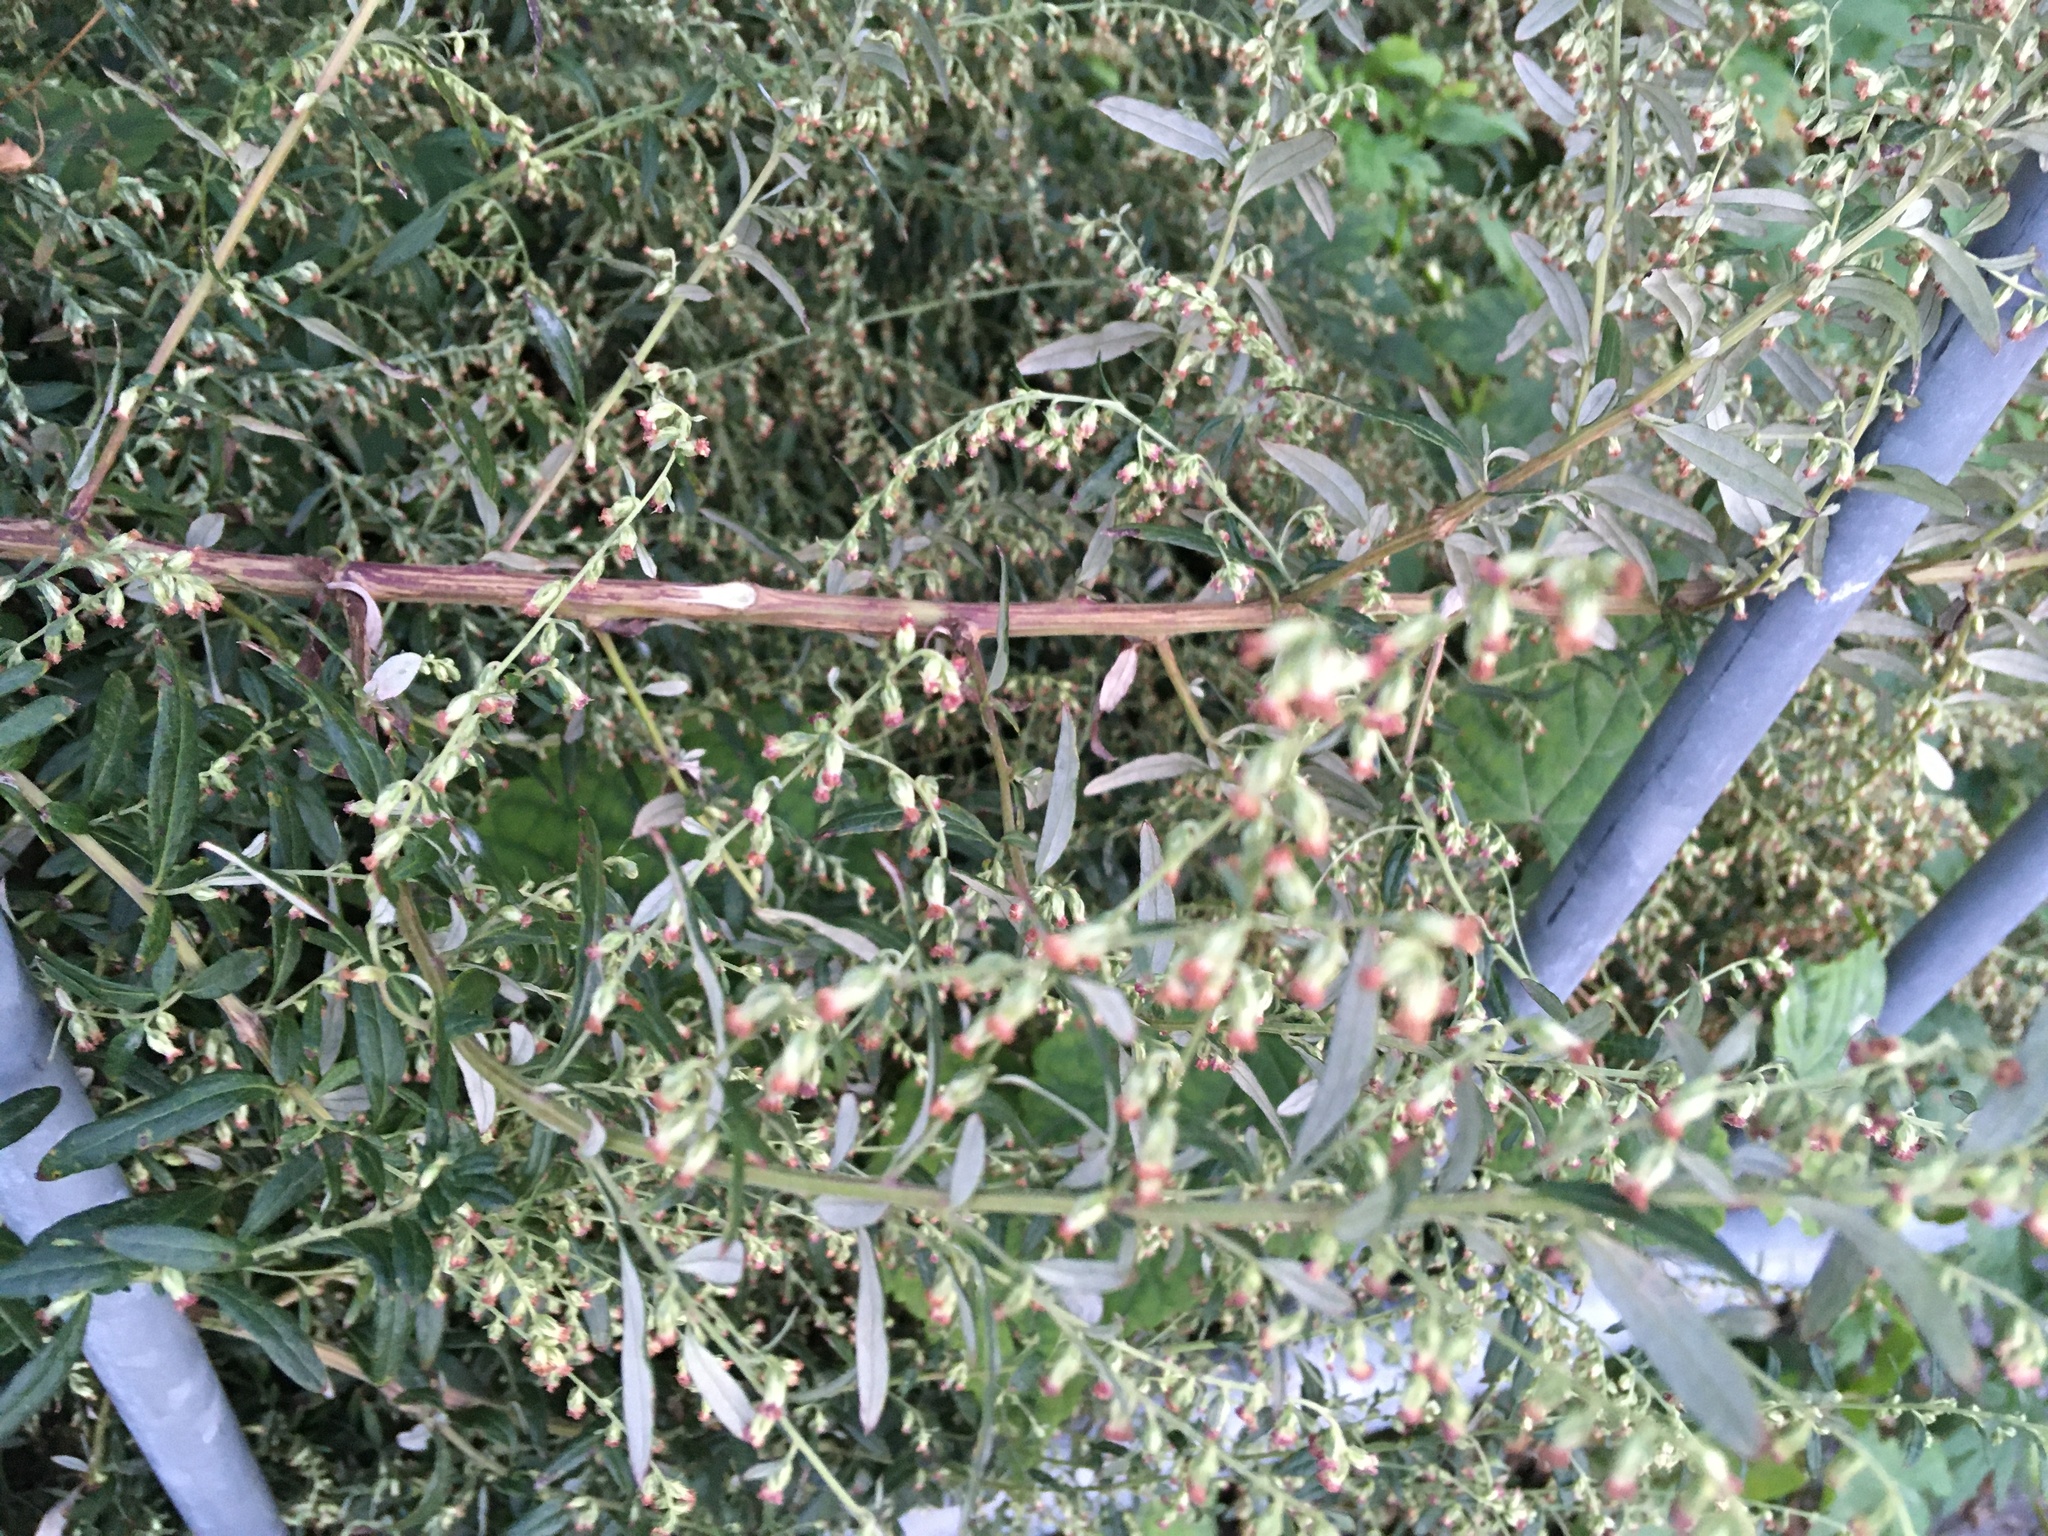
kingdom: Plantae
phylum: Tracheophyta
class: Magnoliopsida
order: Asterales
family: Asteraceae
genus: Artemisia
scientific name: Artemisia vulgaris
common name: Mugwort
